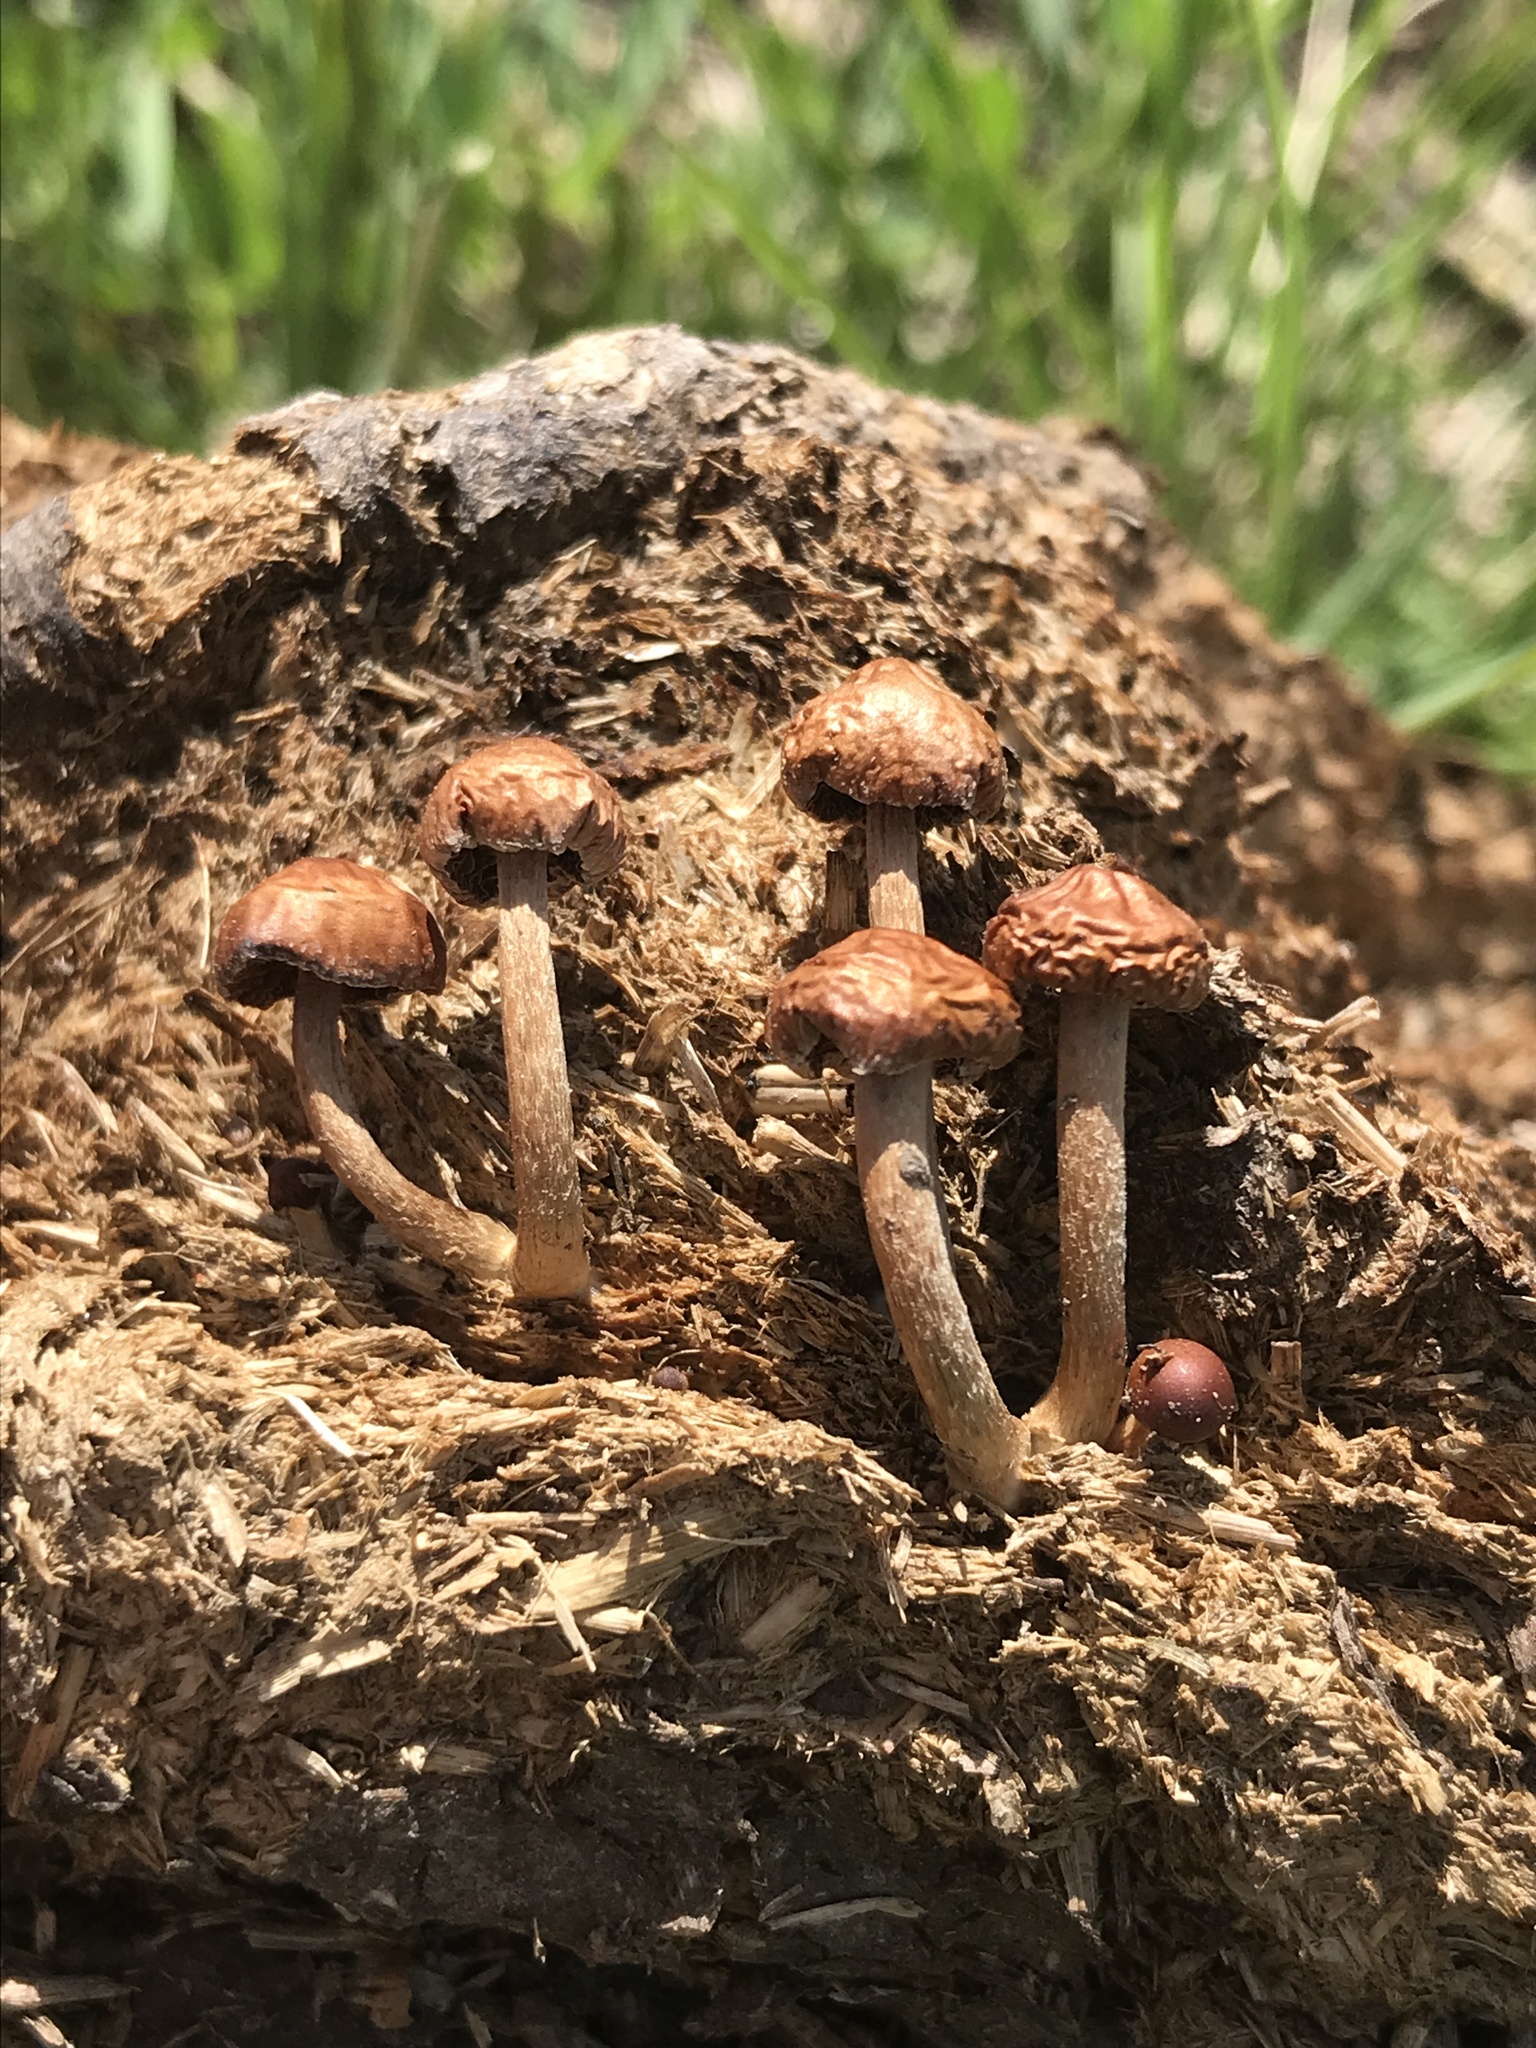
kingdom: Fungi
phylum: Basidiomycota
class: Agaricomycetes
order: Agaricales
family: Strophariaceae
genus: Deconica
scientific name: Deconica coprophila
